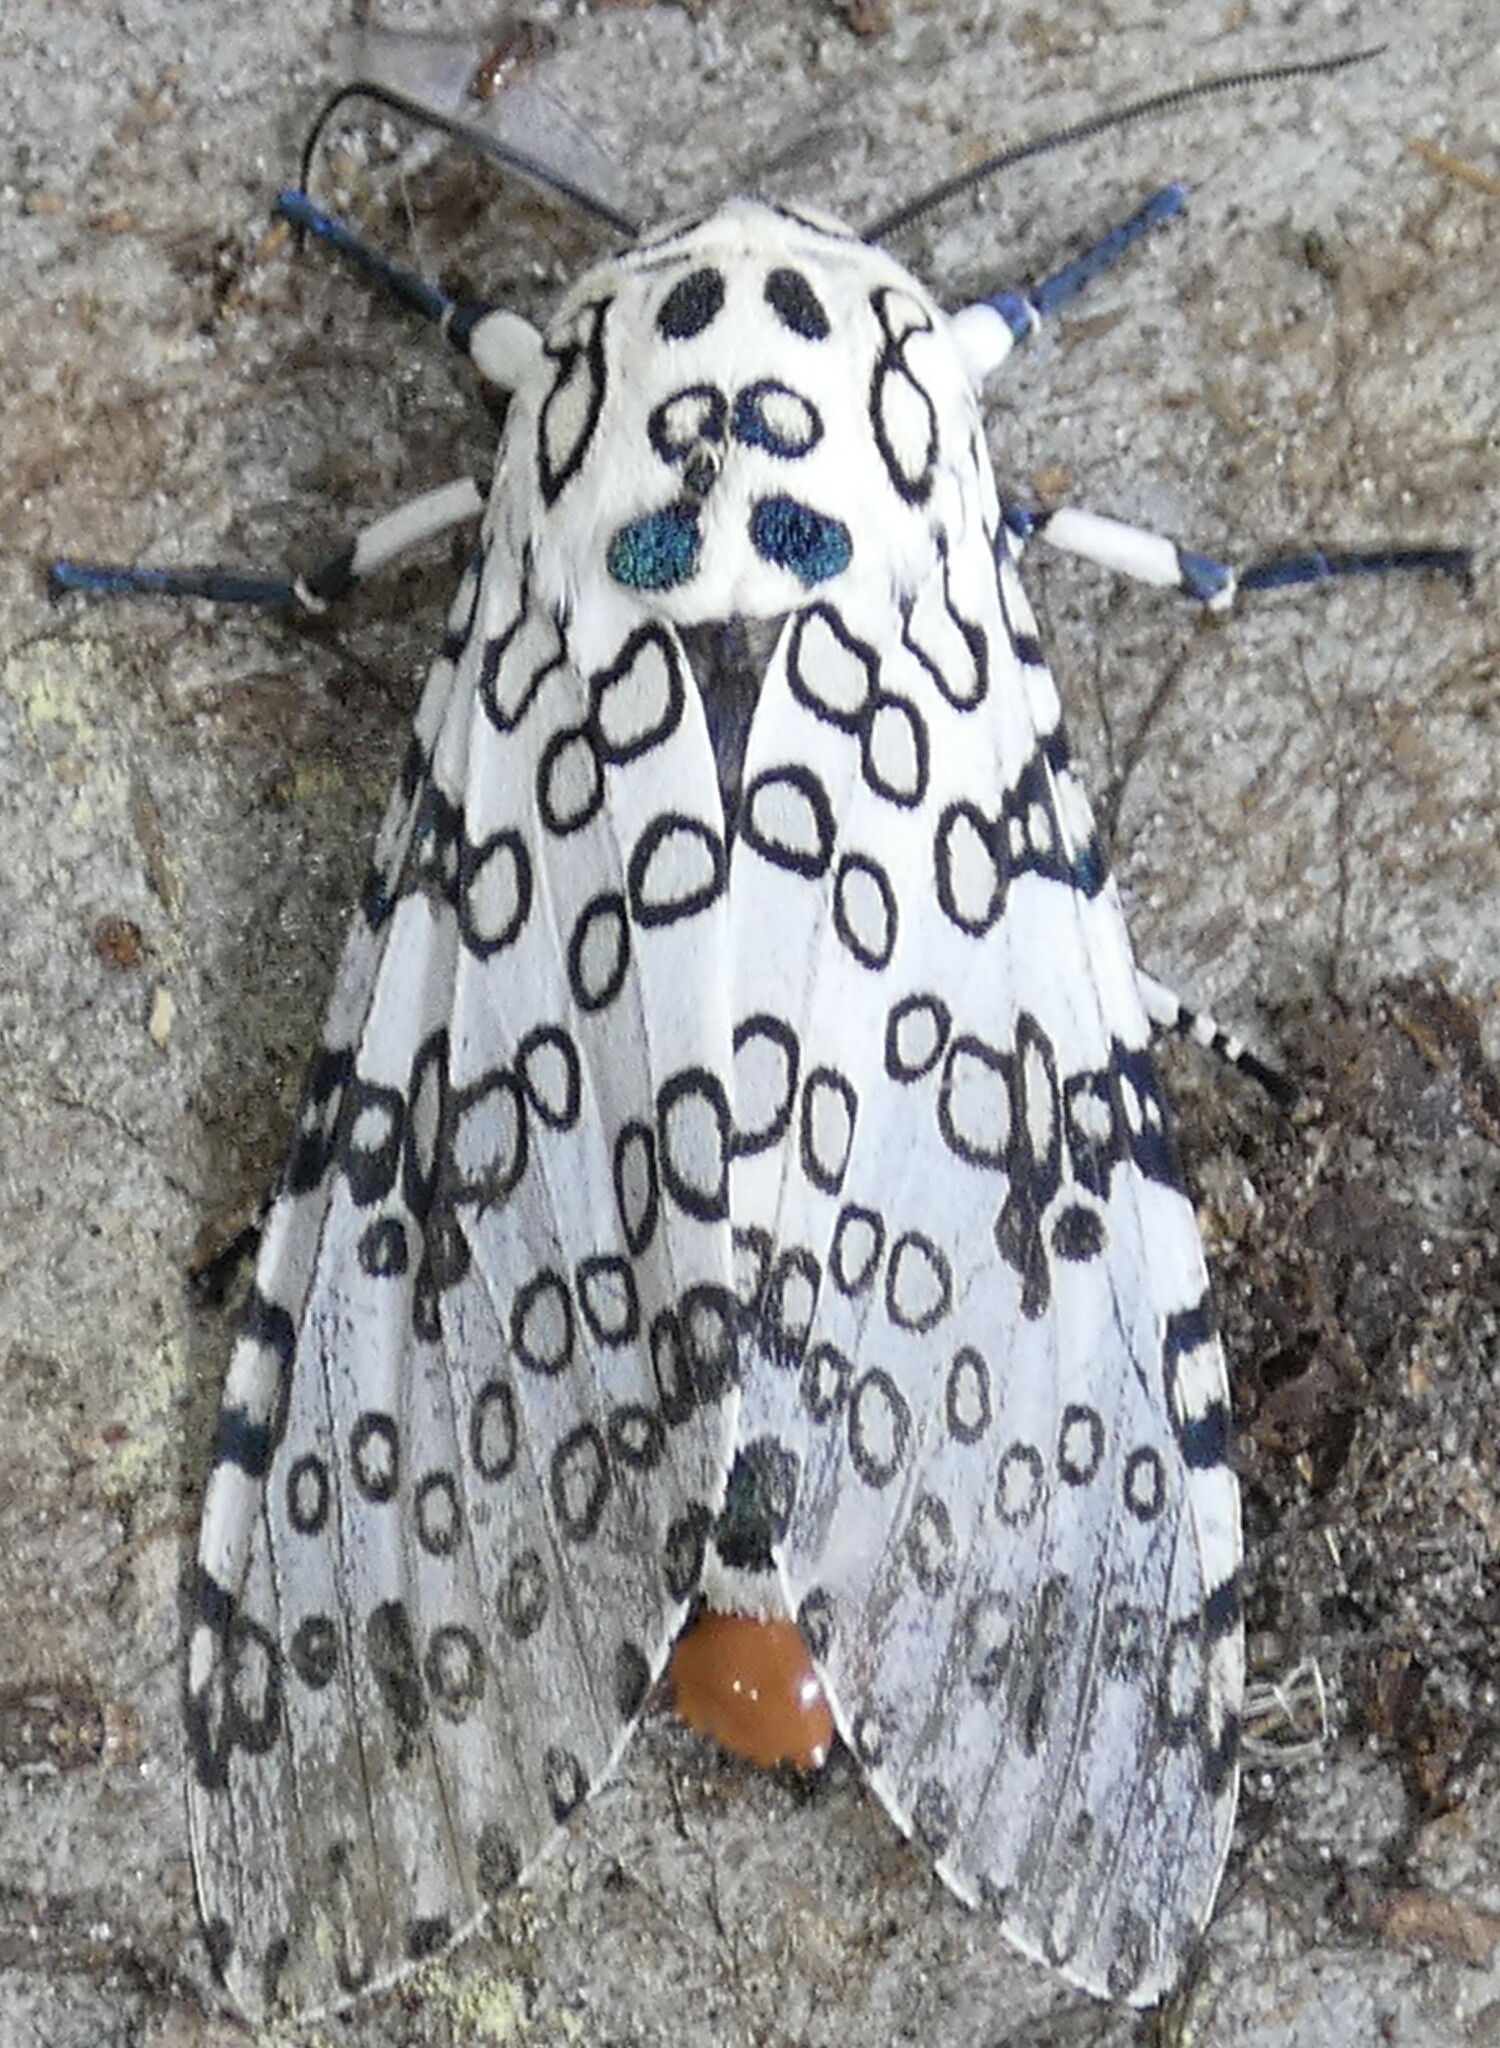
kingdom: Animalia
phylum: Arthropoda
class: Insecta
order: Lepidoptera
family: Erebidae
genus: Hypercompe
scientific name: Hypercompe scribonia
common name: Giant leopard moth
